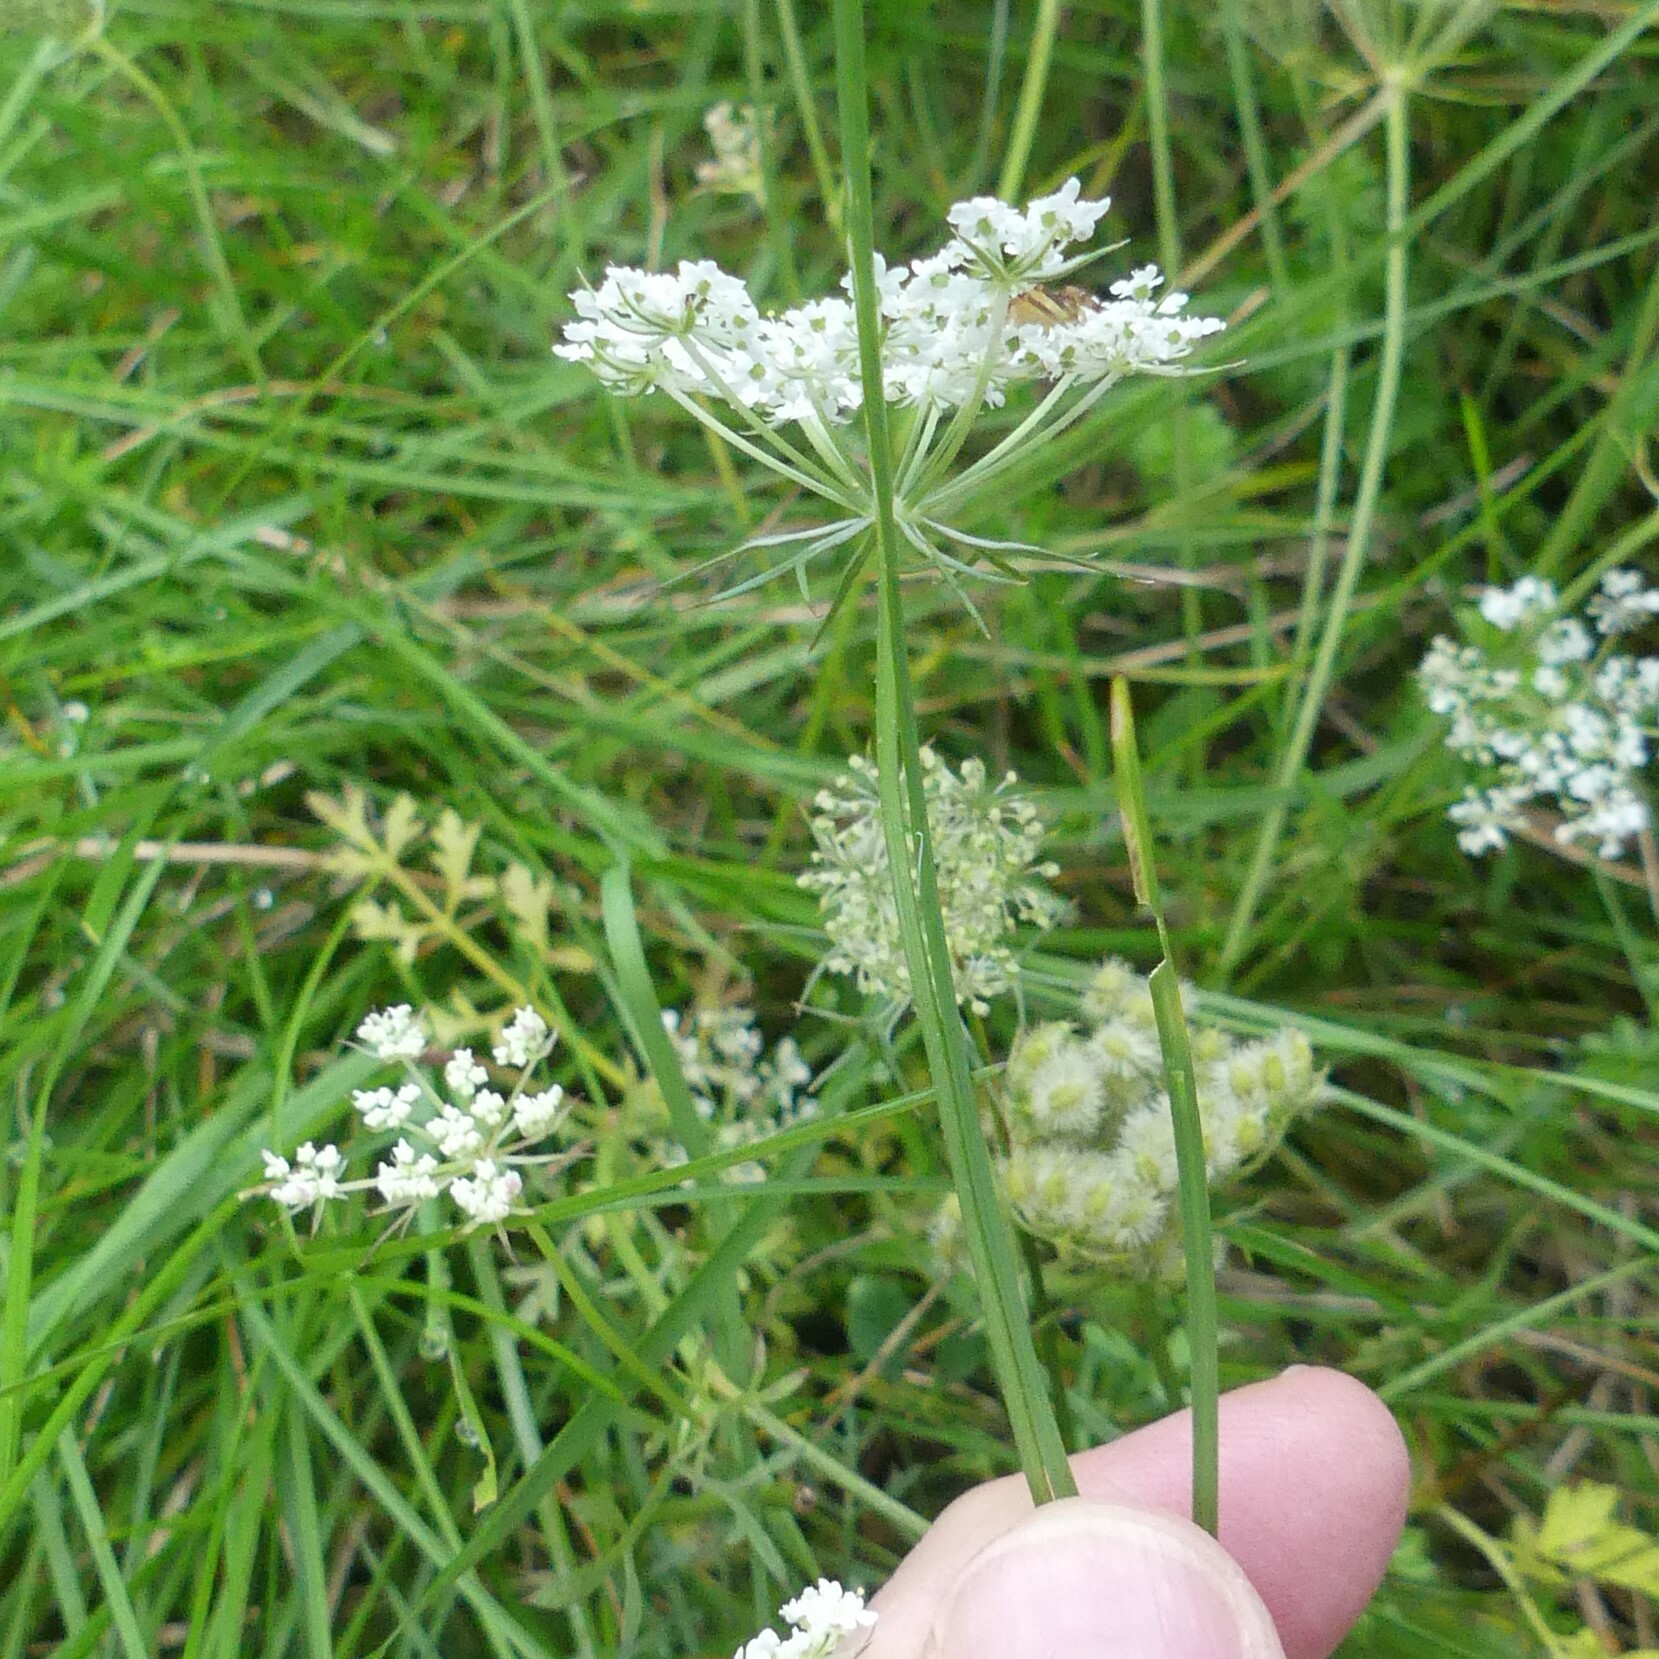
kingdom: Plantae
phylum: Tracheophyta
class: Magnoliopsida
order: Apiales
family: Apiaceae
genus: Daucus
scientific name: Daucus carota
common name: Wild carrot
